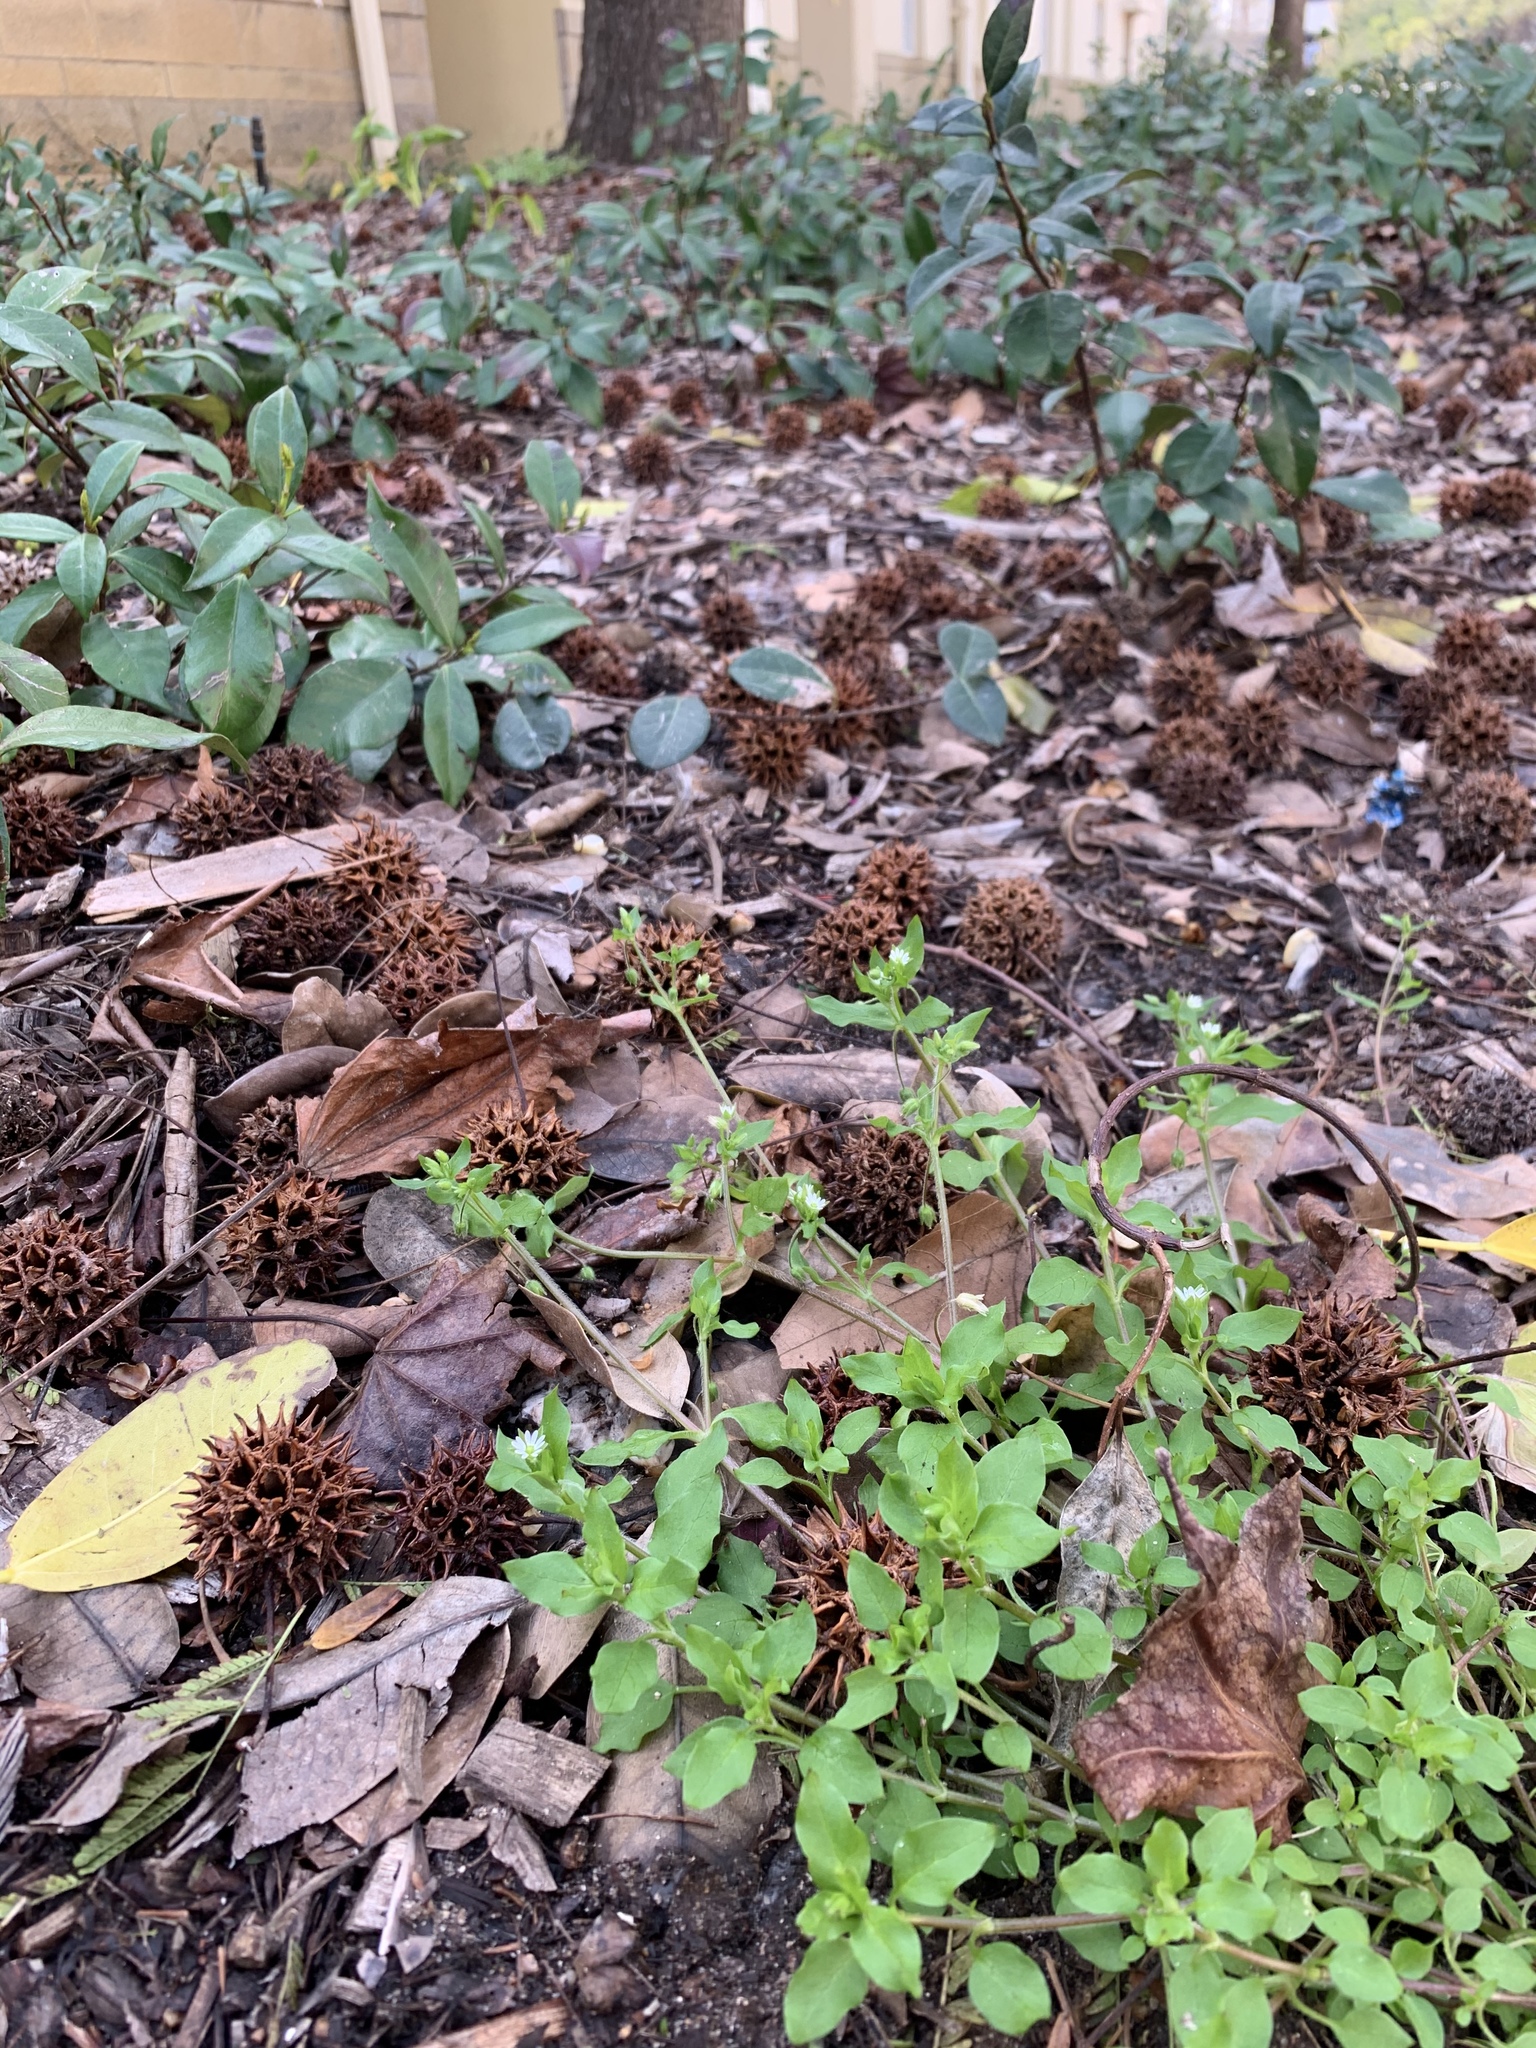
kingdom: Plantae
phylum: Tracheophyta
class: Magnoliopsida
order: Caryophyllales
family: Caryophyllaceae
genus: Stellaria
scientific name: Stellaria media
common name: Common chickweed
